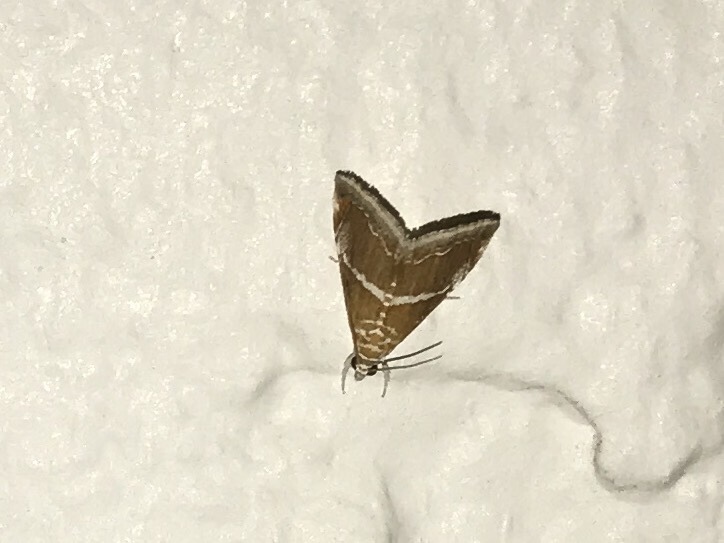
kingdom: Animalia
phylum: Arthropoda
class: Insecta
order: Lepidoptera
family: Crambidae
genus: Abegesta
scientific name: Abegesta reluctalis
